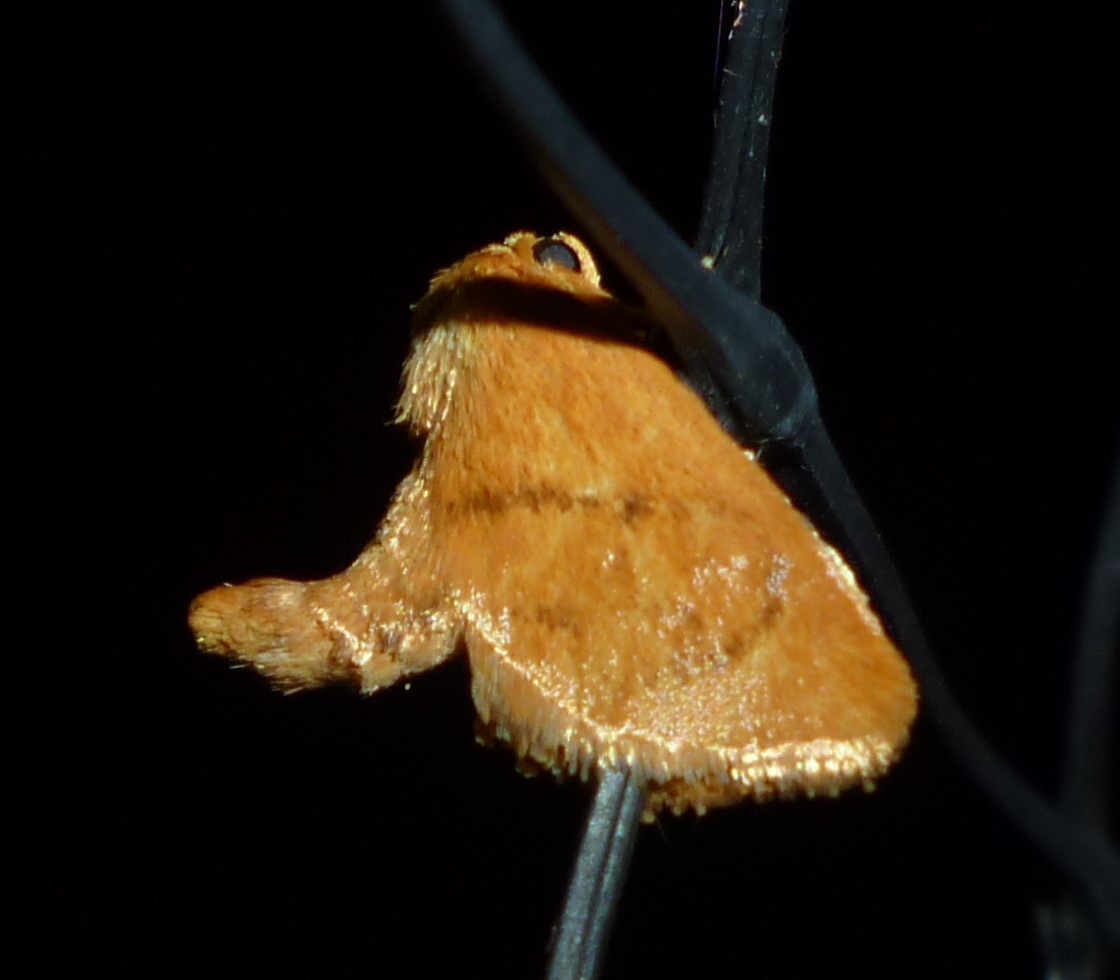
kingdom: Animalia
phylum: Arthropoda
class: Insecta
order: Lepidoptera
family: Limacodidae
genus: Tortricidia
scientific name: Tortricidia flexuosa
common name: Abbreviated button slug moth
